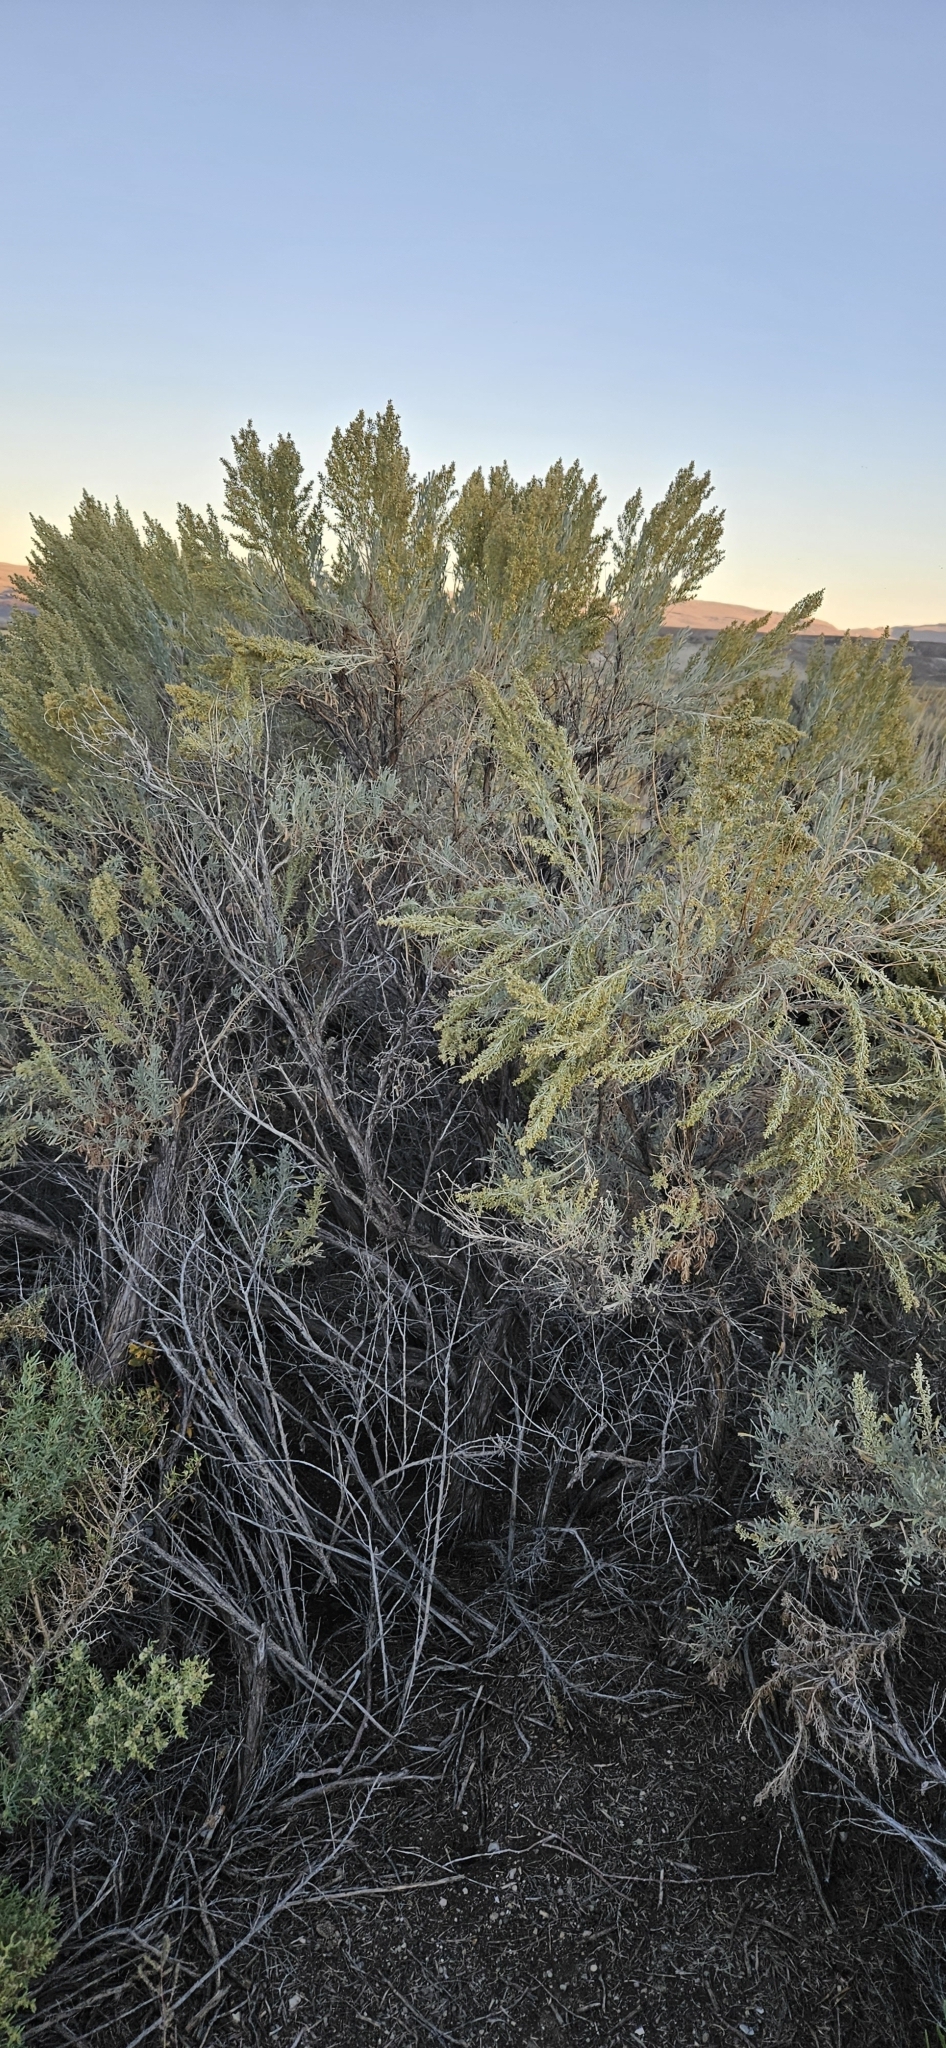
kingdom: Plantae
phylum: Tracheophyta
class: Magnoliopsida
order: Asterales
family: Asteraceae
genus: Artemisia
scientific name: Artemisia tridentata
